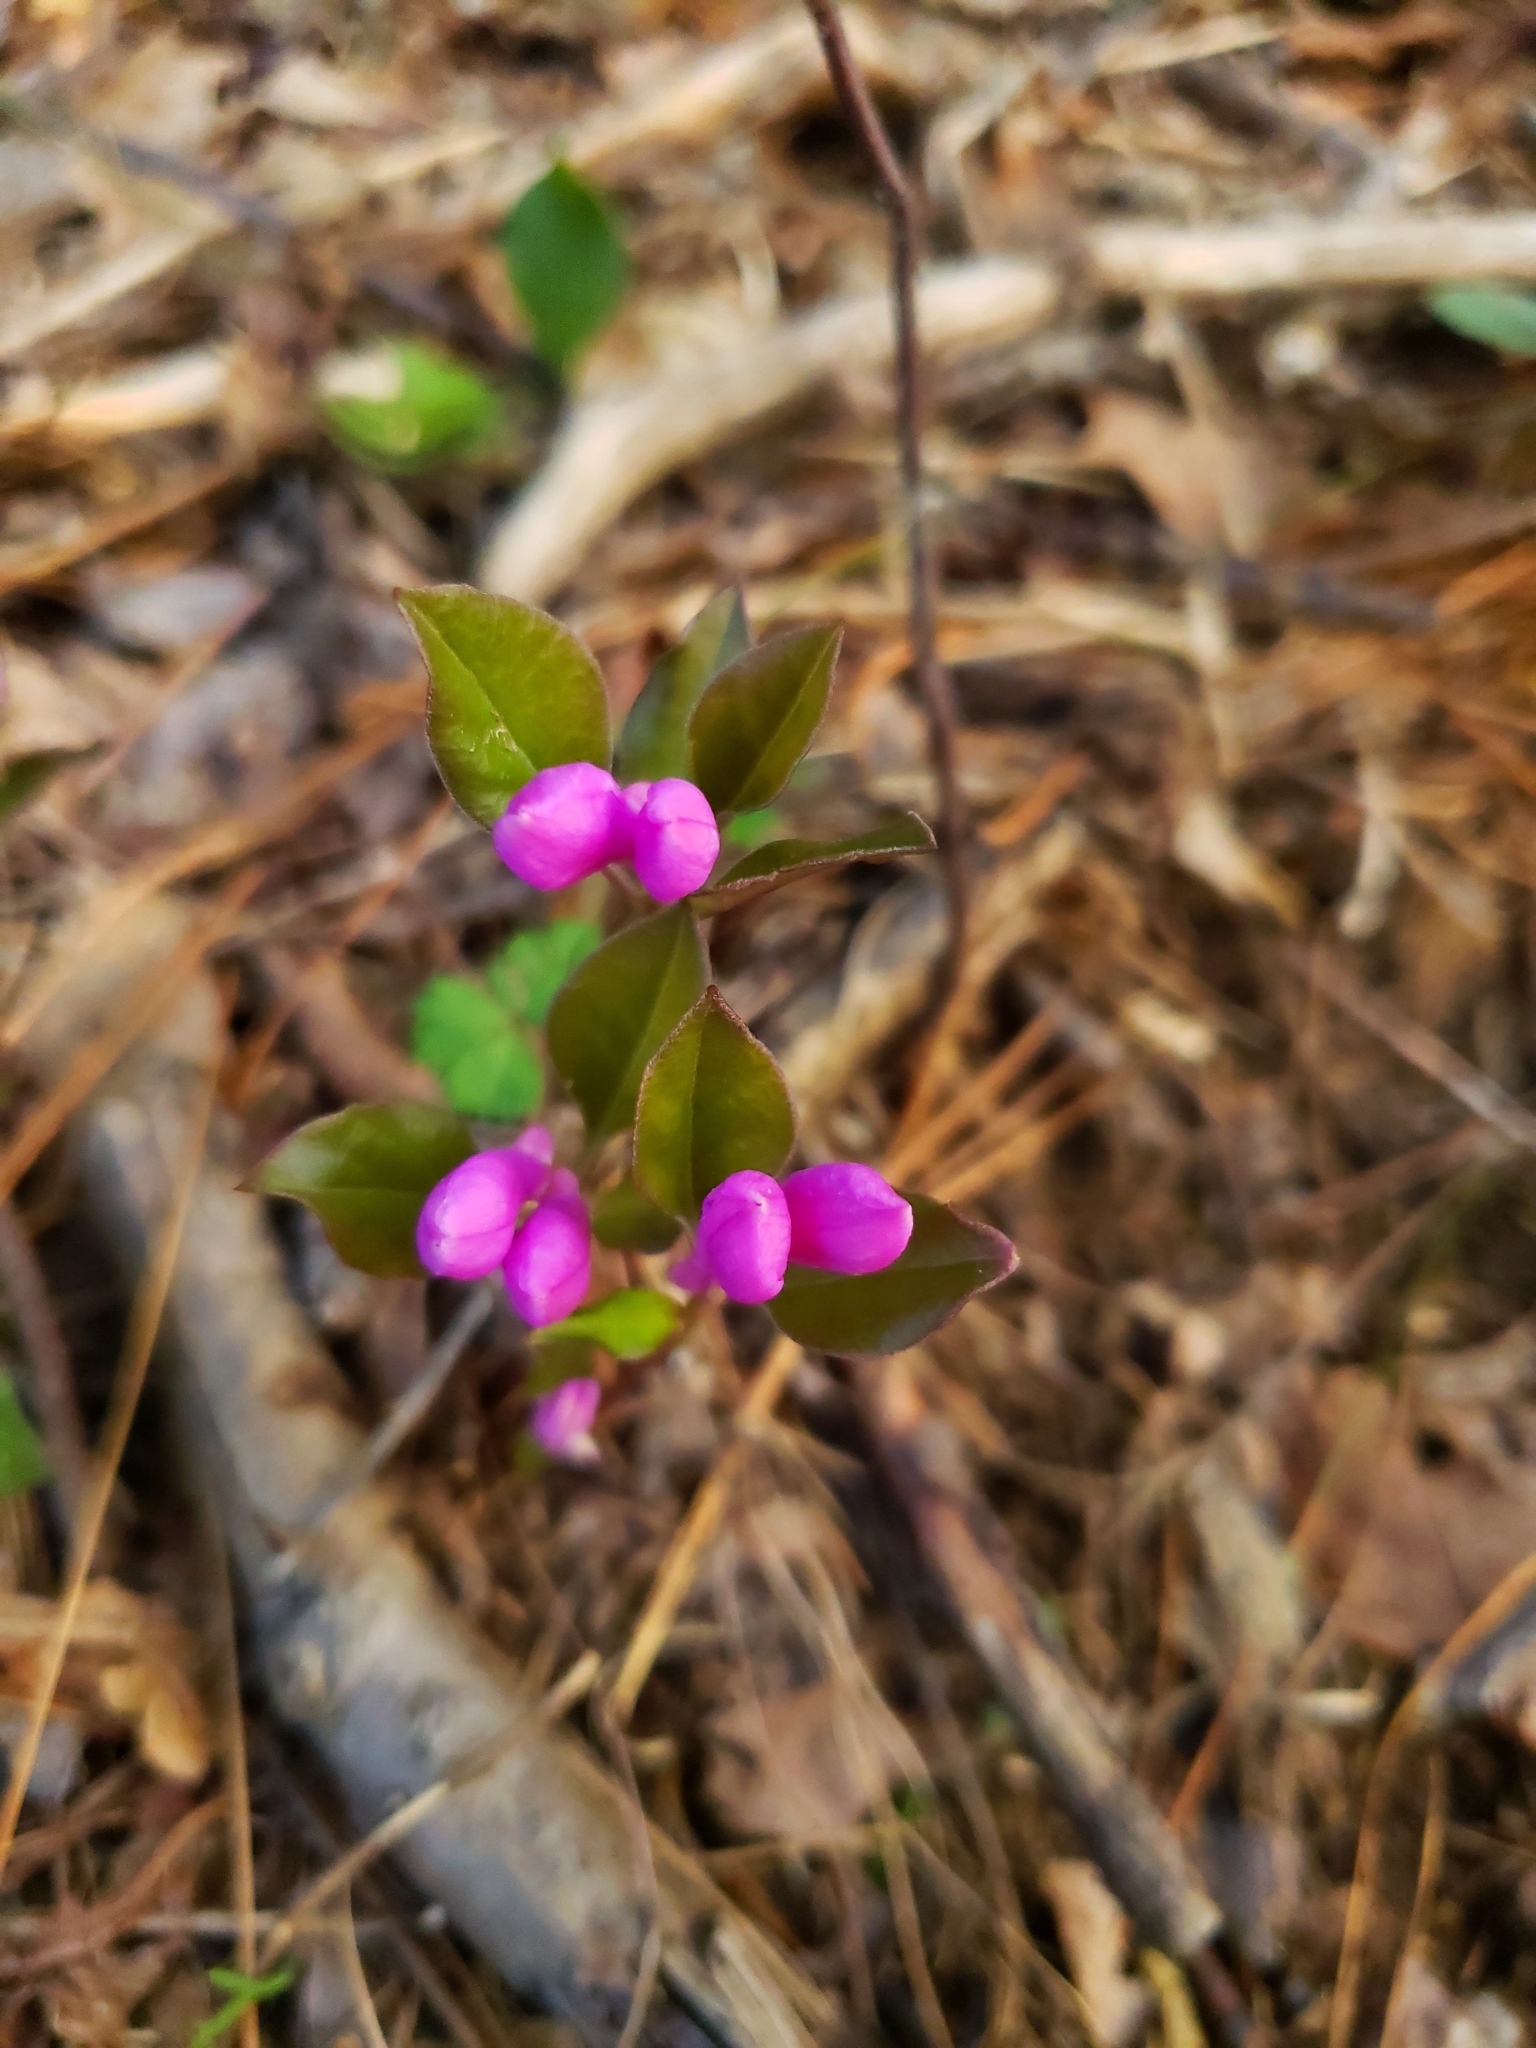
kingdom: Plantae
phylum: Tracheophyta
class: Magnoliopsida
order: Fabales
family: Polygalaceae
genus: Polygaloides
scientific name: Polygaloides paucifolia
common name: Bird-on-the-wing
